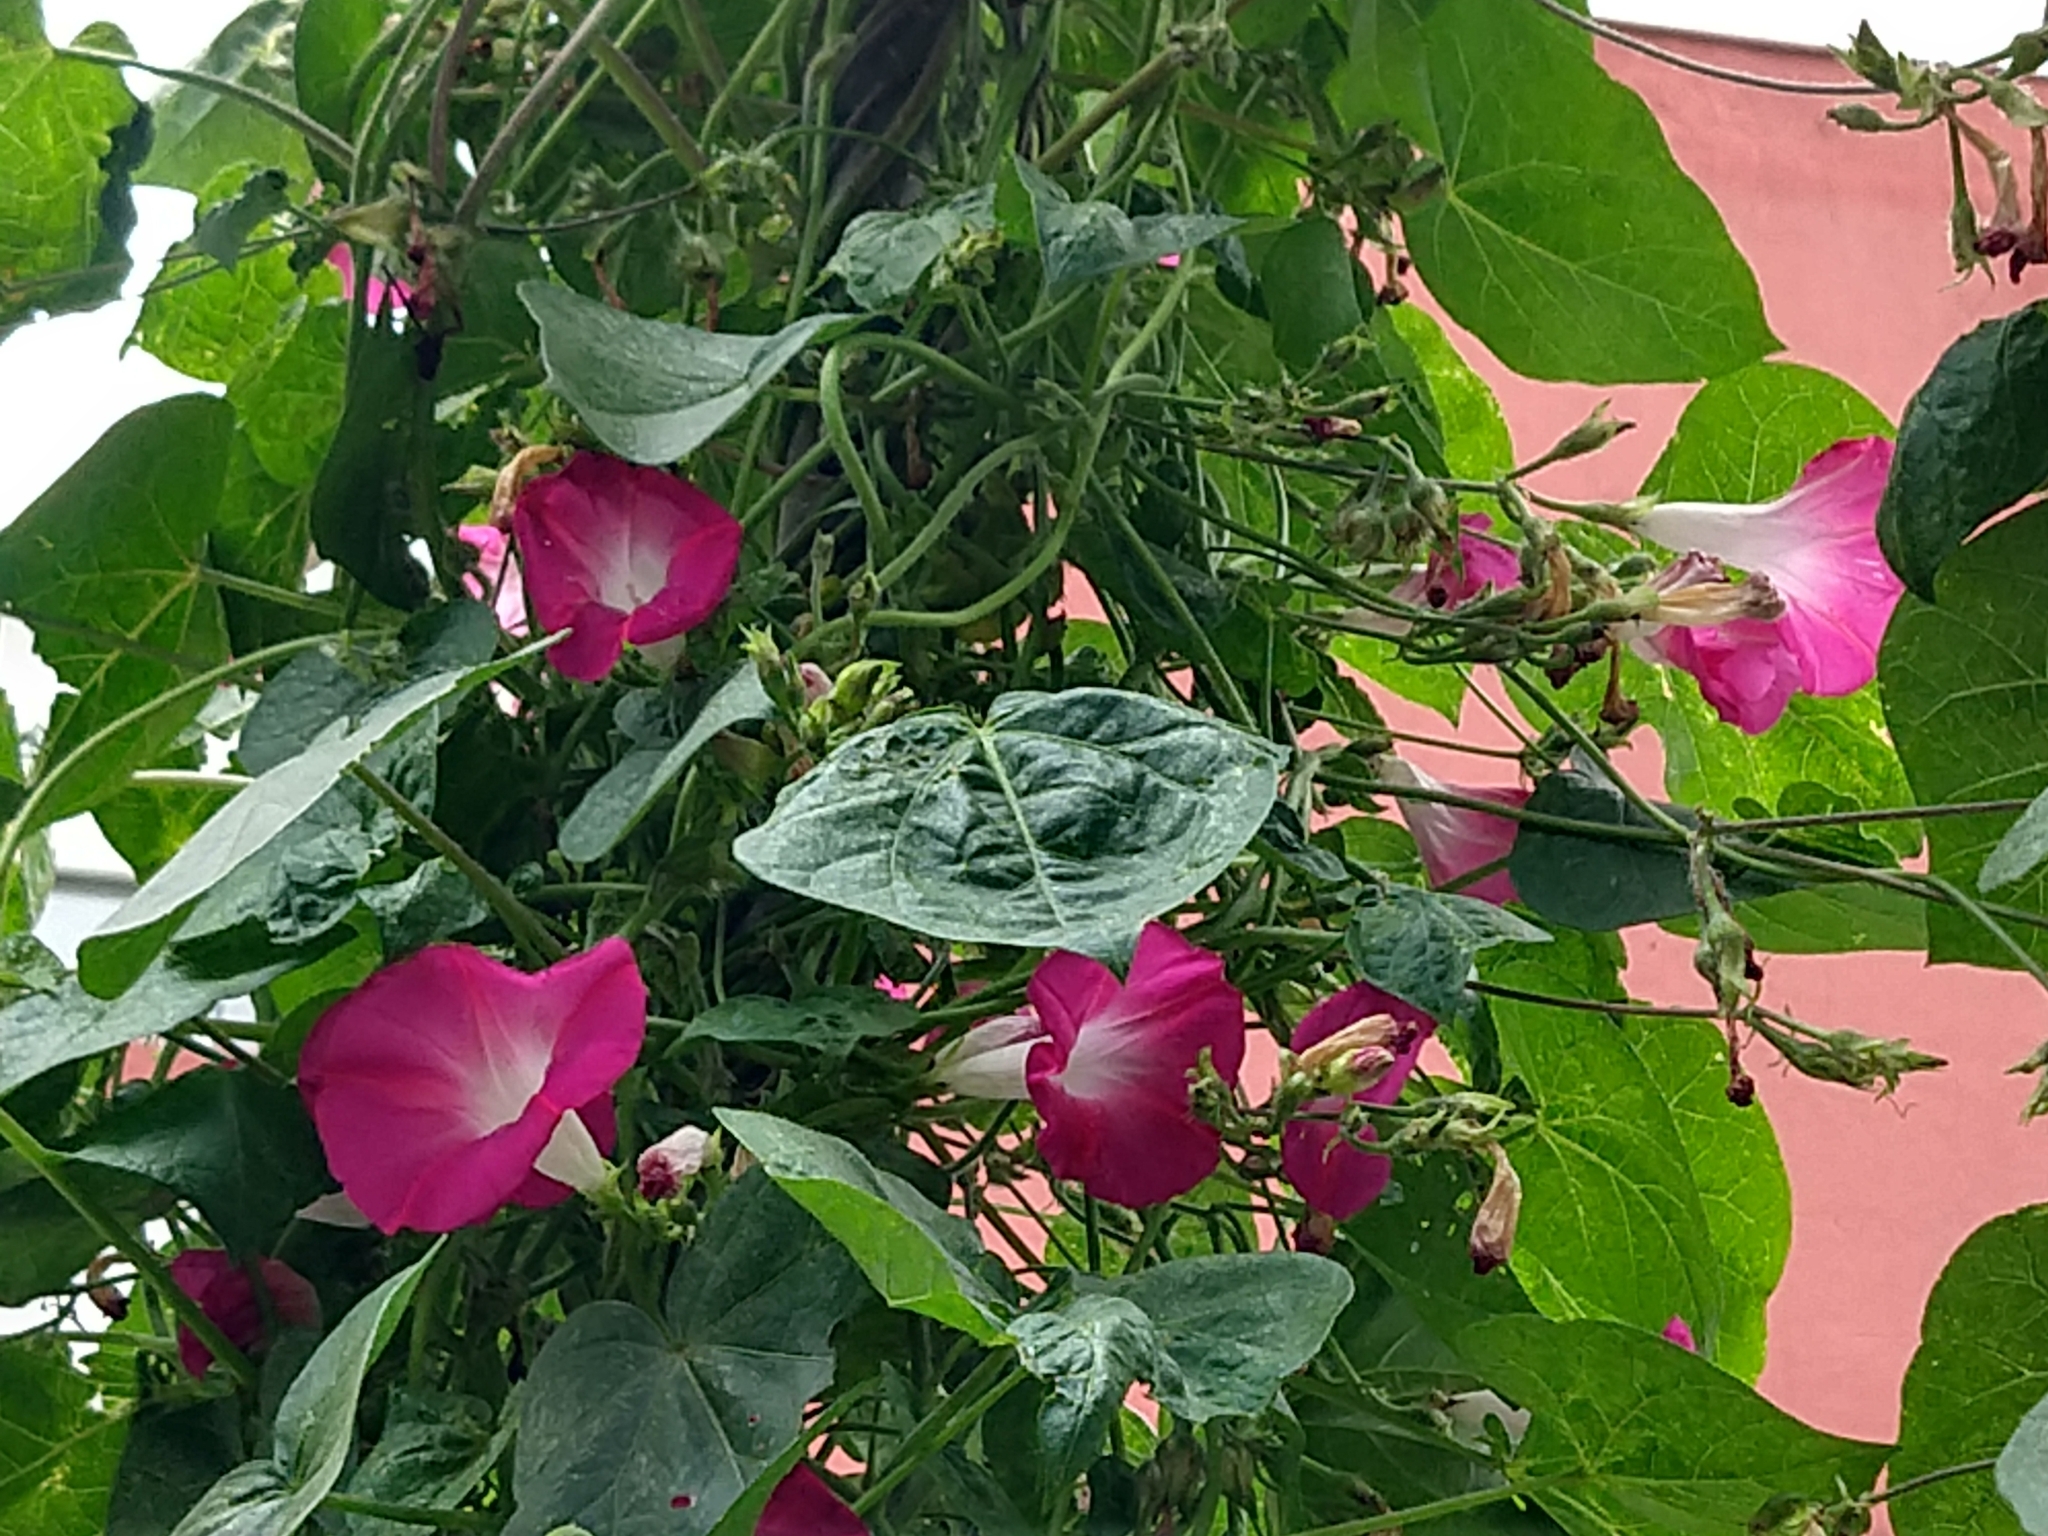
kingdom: Plantae
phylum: Tracheophyta
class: Magnoliopsida
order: Solanales
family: Convolvulaceae
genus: Ipomoea
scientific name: Ipomoea purpurea
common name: Common morning-glory
